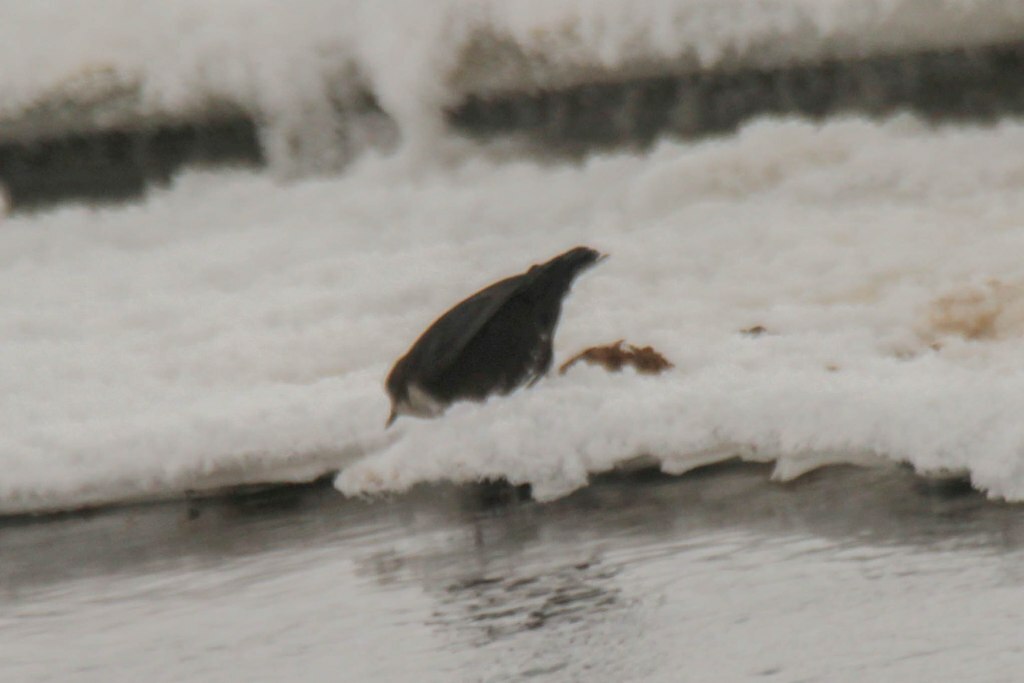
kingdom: Animalia
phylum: Chordata
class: Aves
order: Passeriformes
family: Cinclidae
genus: Cinclus
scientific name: Cinclus cinclus
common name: White-throated dipper
